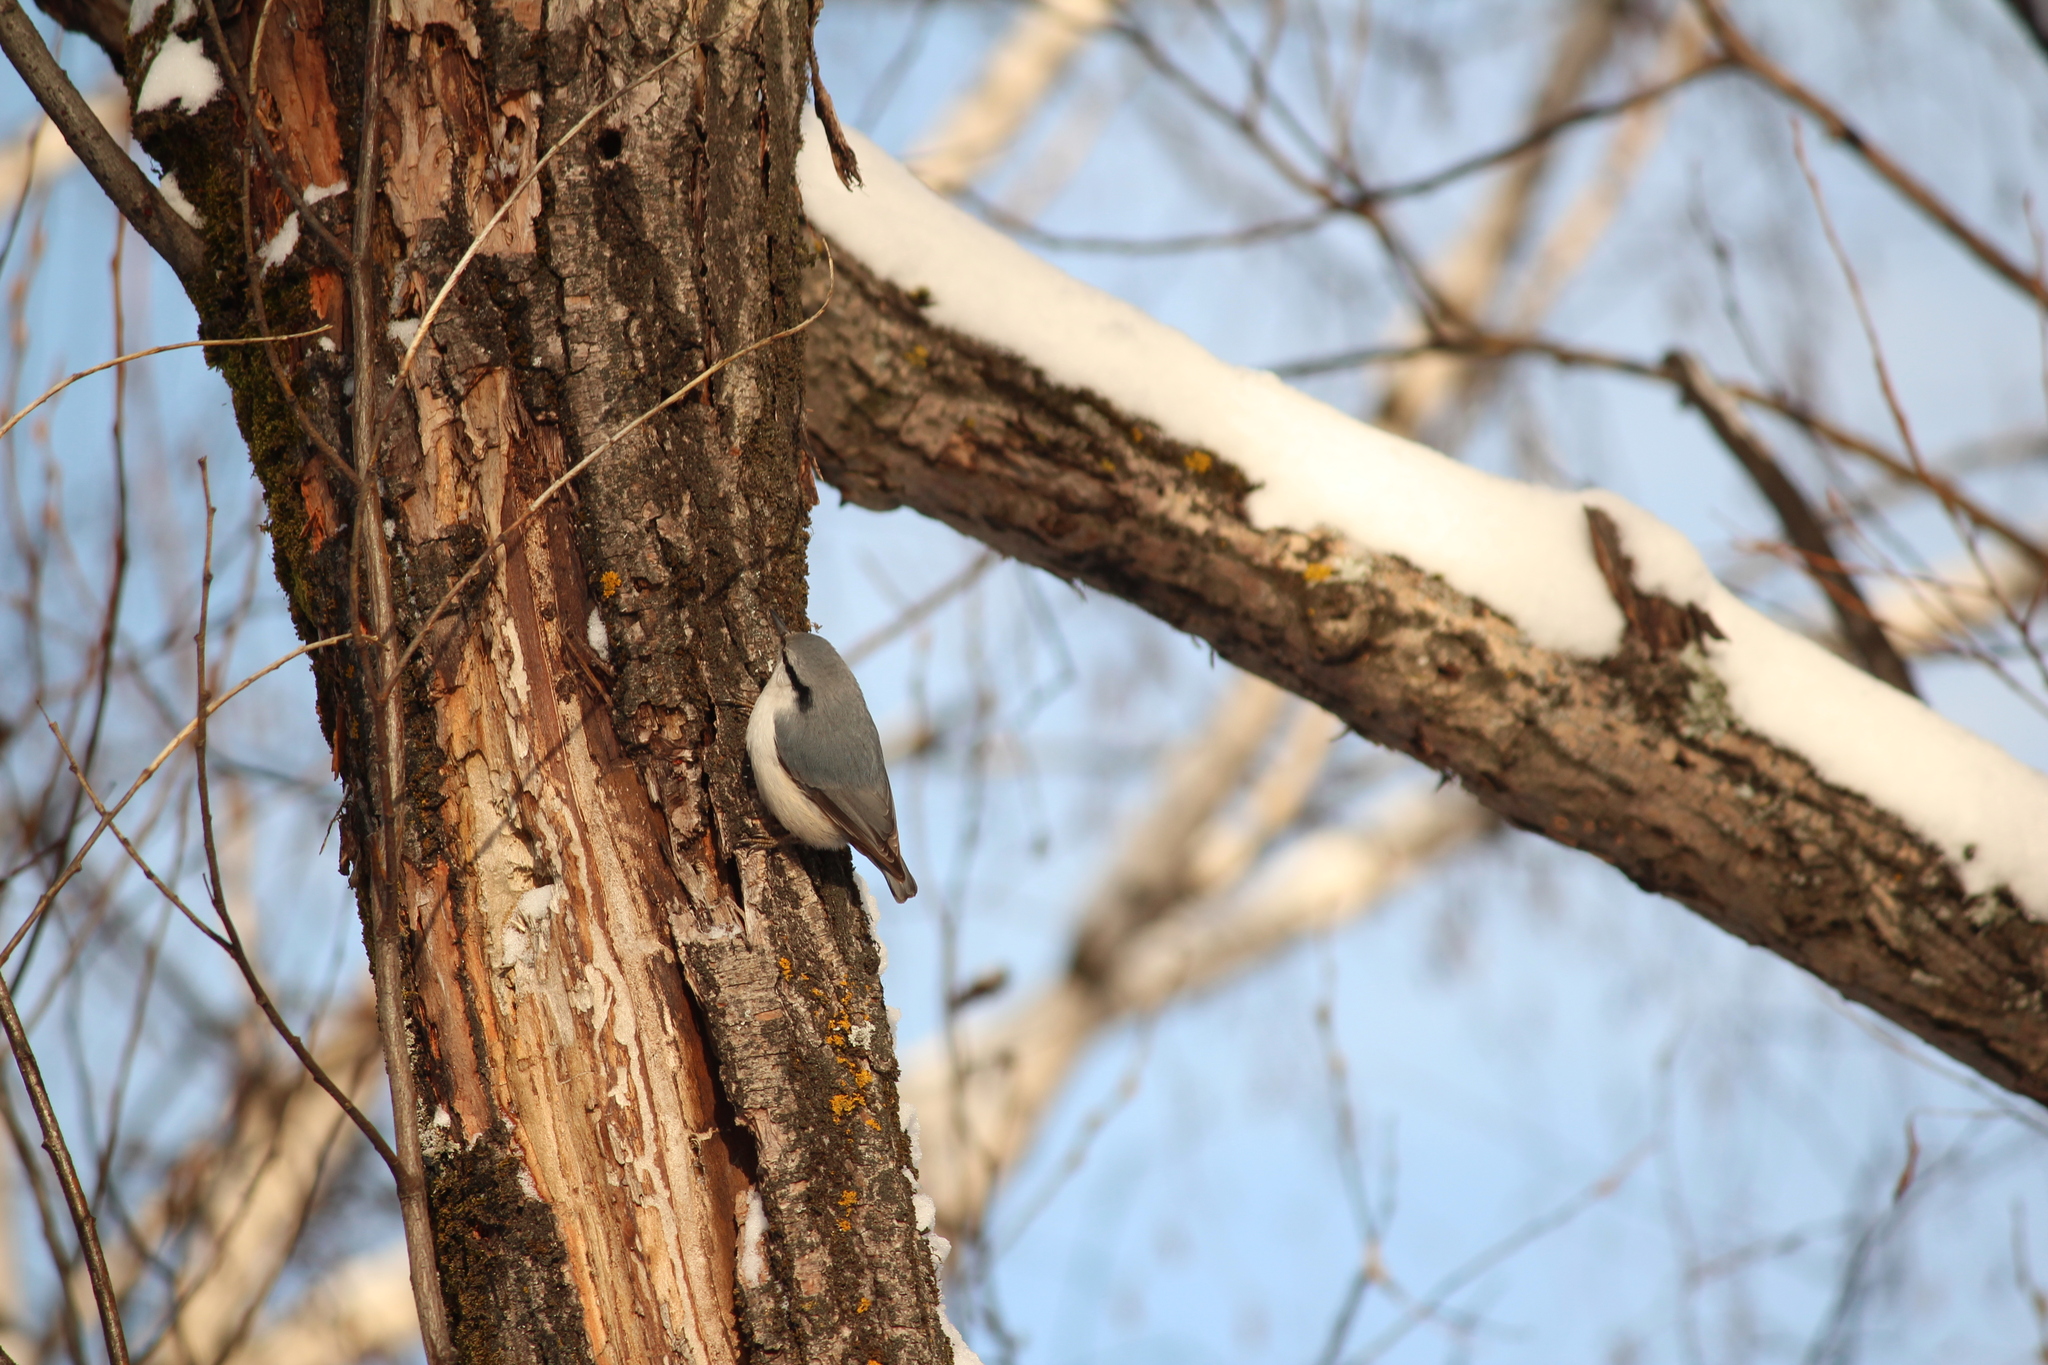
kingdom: Animalia
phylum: Chordata
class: Aves
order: Passeriformes
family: Sittidae
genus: Sitta
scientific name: Sitta europaea
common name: Eurasian nuthatch
